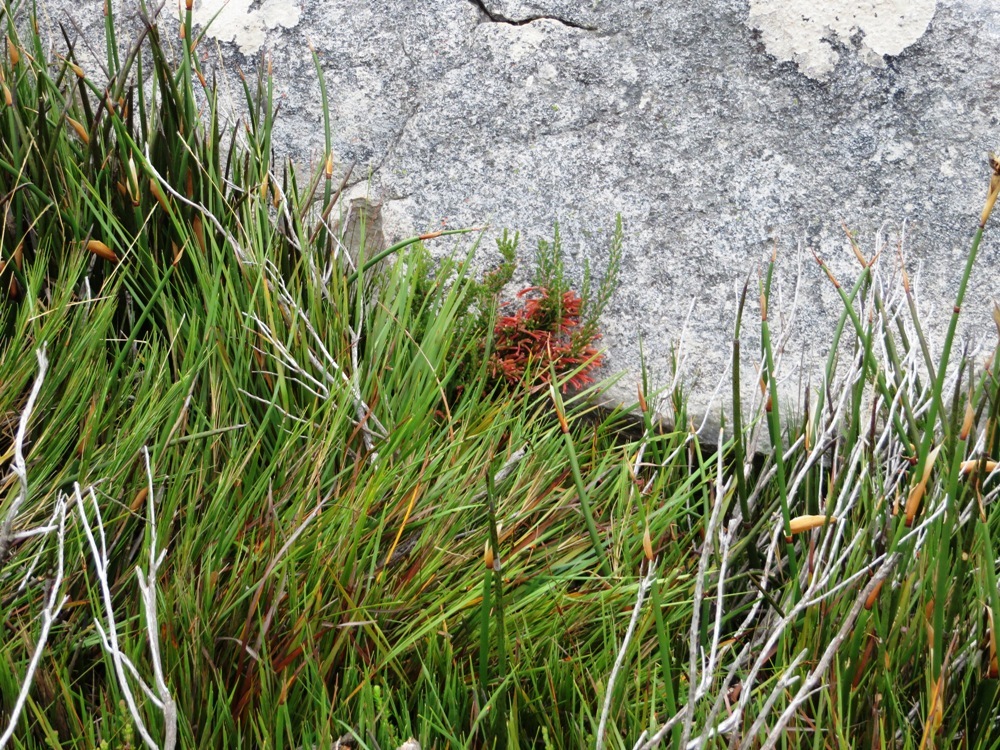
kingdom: Plantae
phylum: Tracheophyta
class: Magnoliopsida
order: Ericales
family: Ericaceae
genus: Erica
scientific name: Erica curviflora
